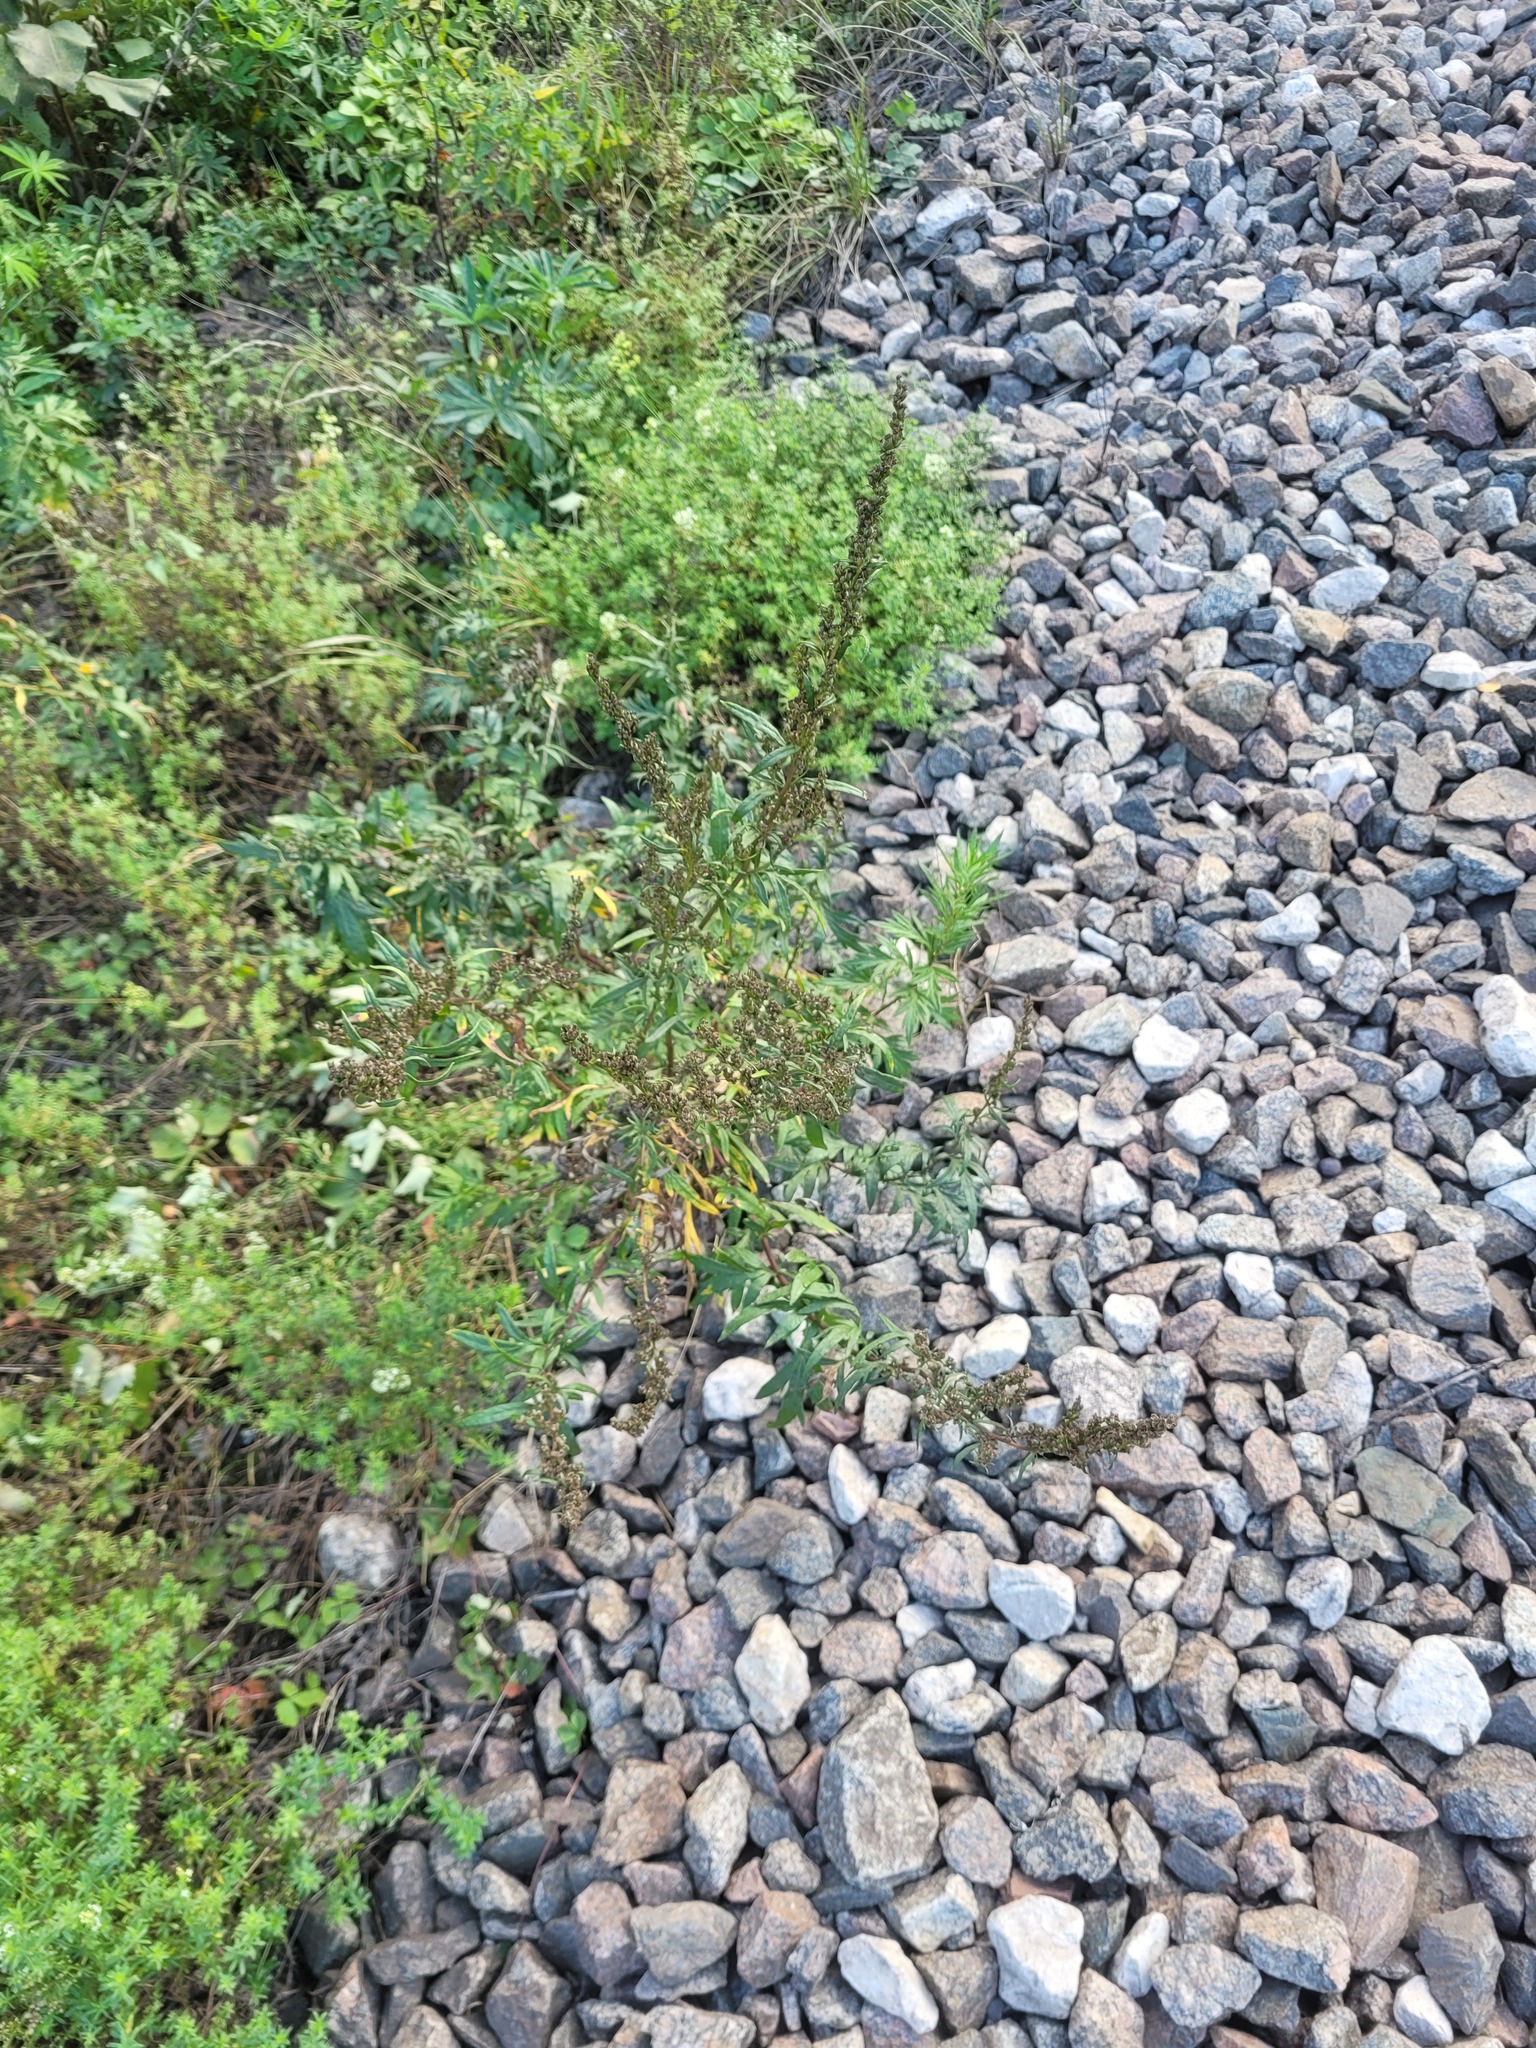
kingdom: Plantae
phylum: Tracheophyta
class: Magnoliopsida
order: Asterales
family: Asteraceae
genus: Artemisia
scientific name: Artemisia vulgaris
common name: Mugwort
